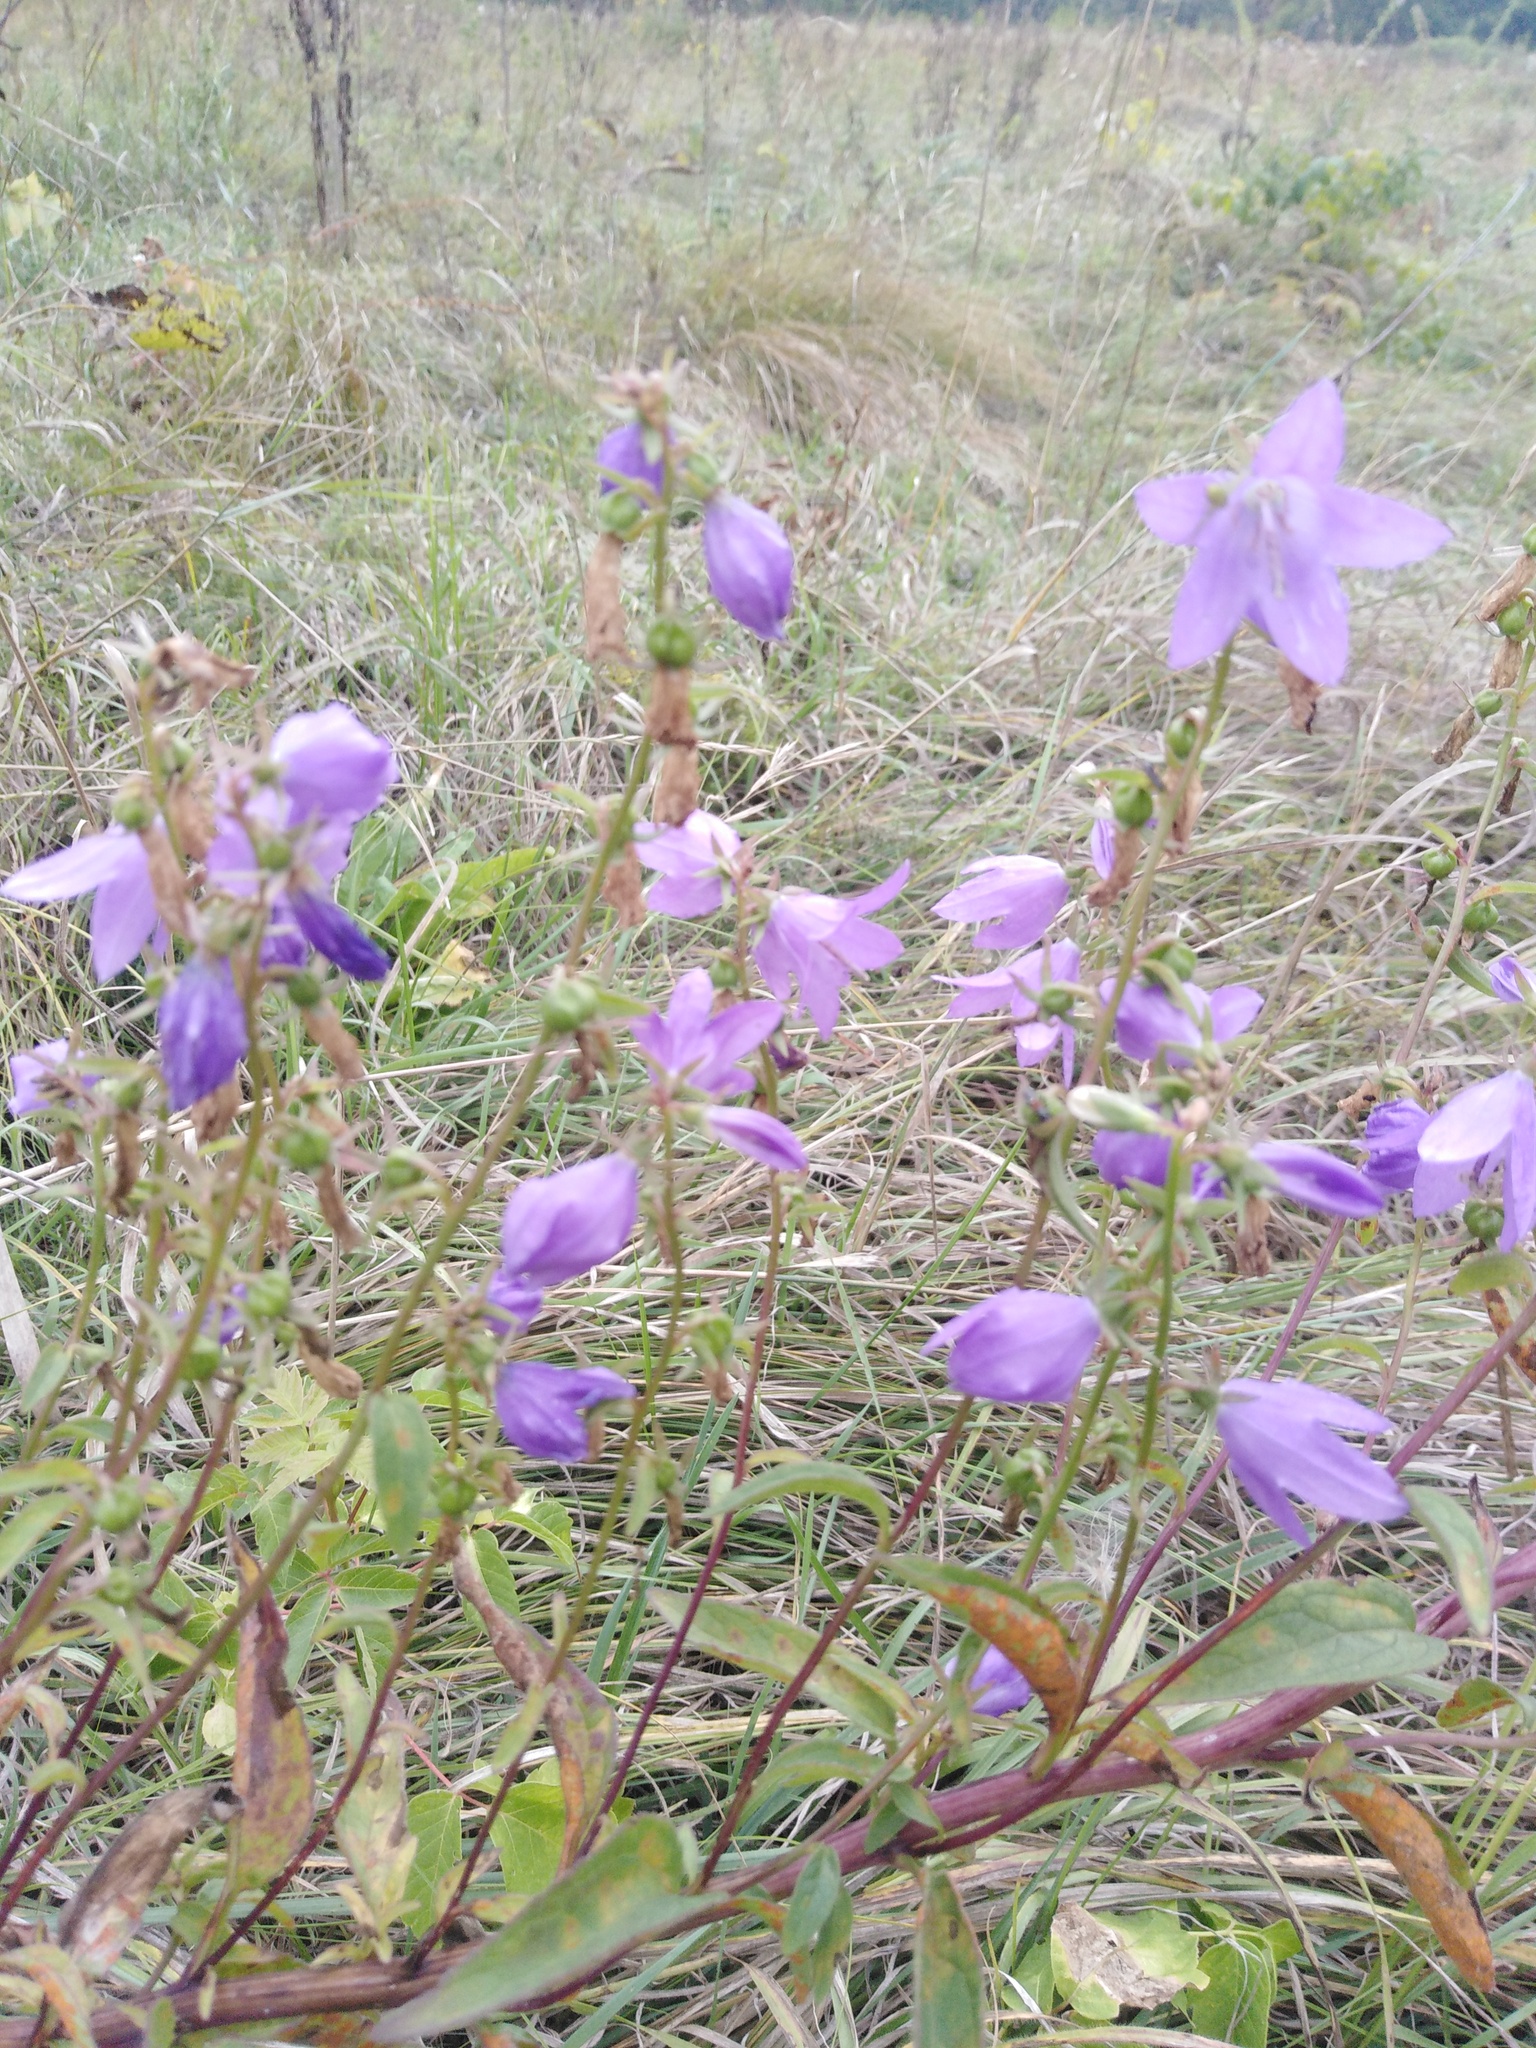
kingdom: Plantae
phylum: Tracheophyta
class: Magnoliopsida
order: Asterales
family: Campanulaceae
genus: Campanula
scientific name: Campanula rapunculoides
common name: Creeping bellflower
